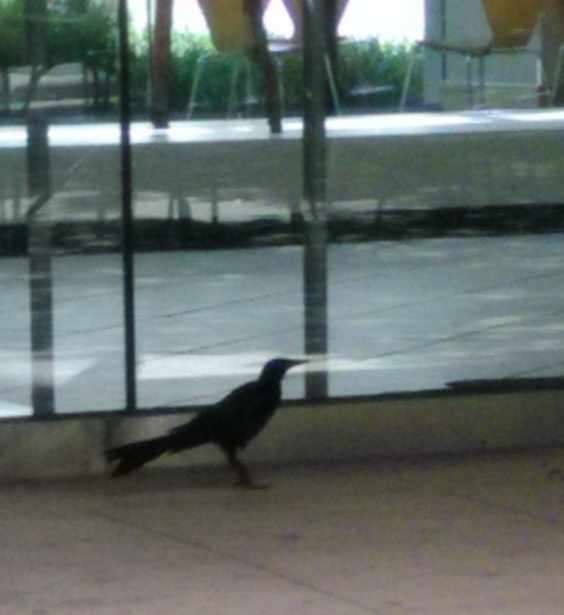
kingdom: Animalia
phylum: Chordata
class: Aves
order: Passeriformes
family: Icteridae
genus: Quiscalus
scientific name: Quiscalus mexicanus
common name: Great-tailed grackle
